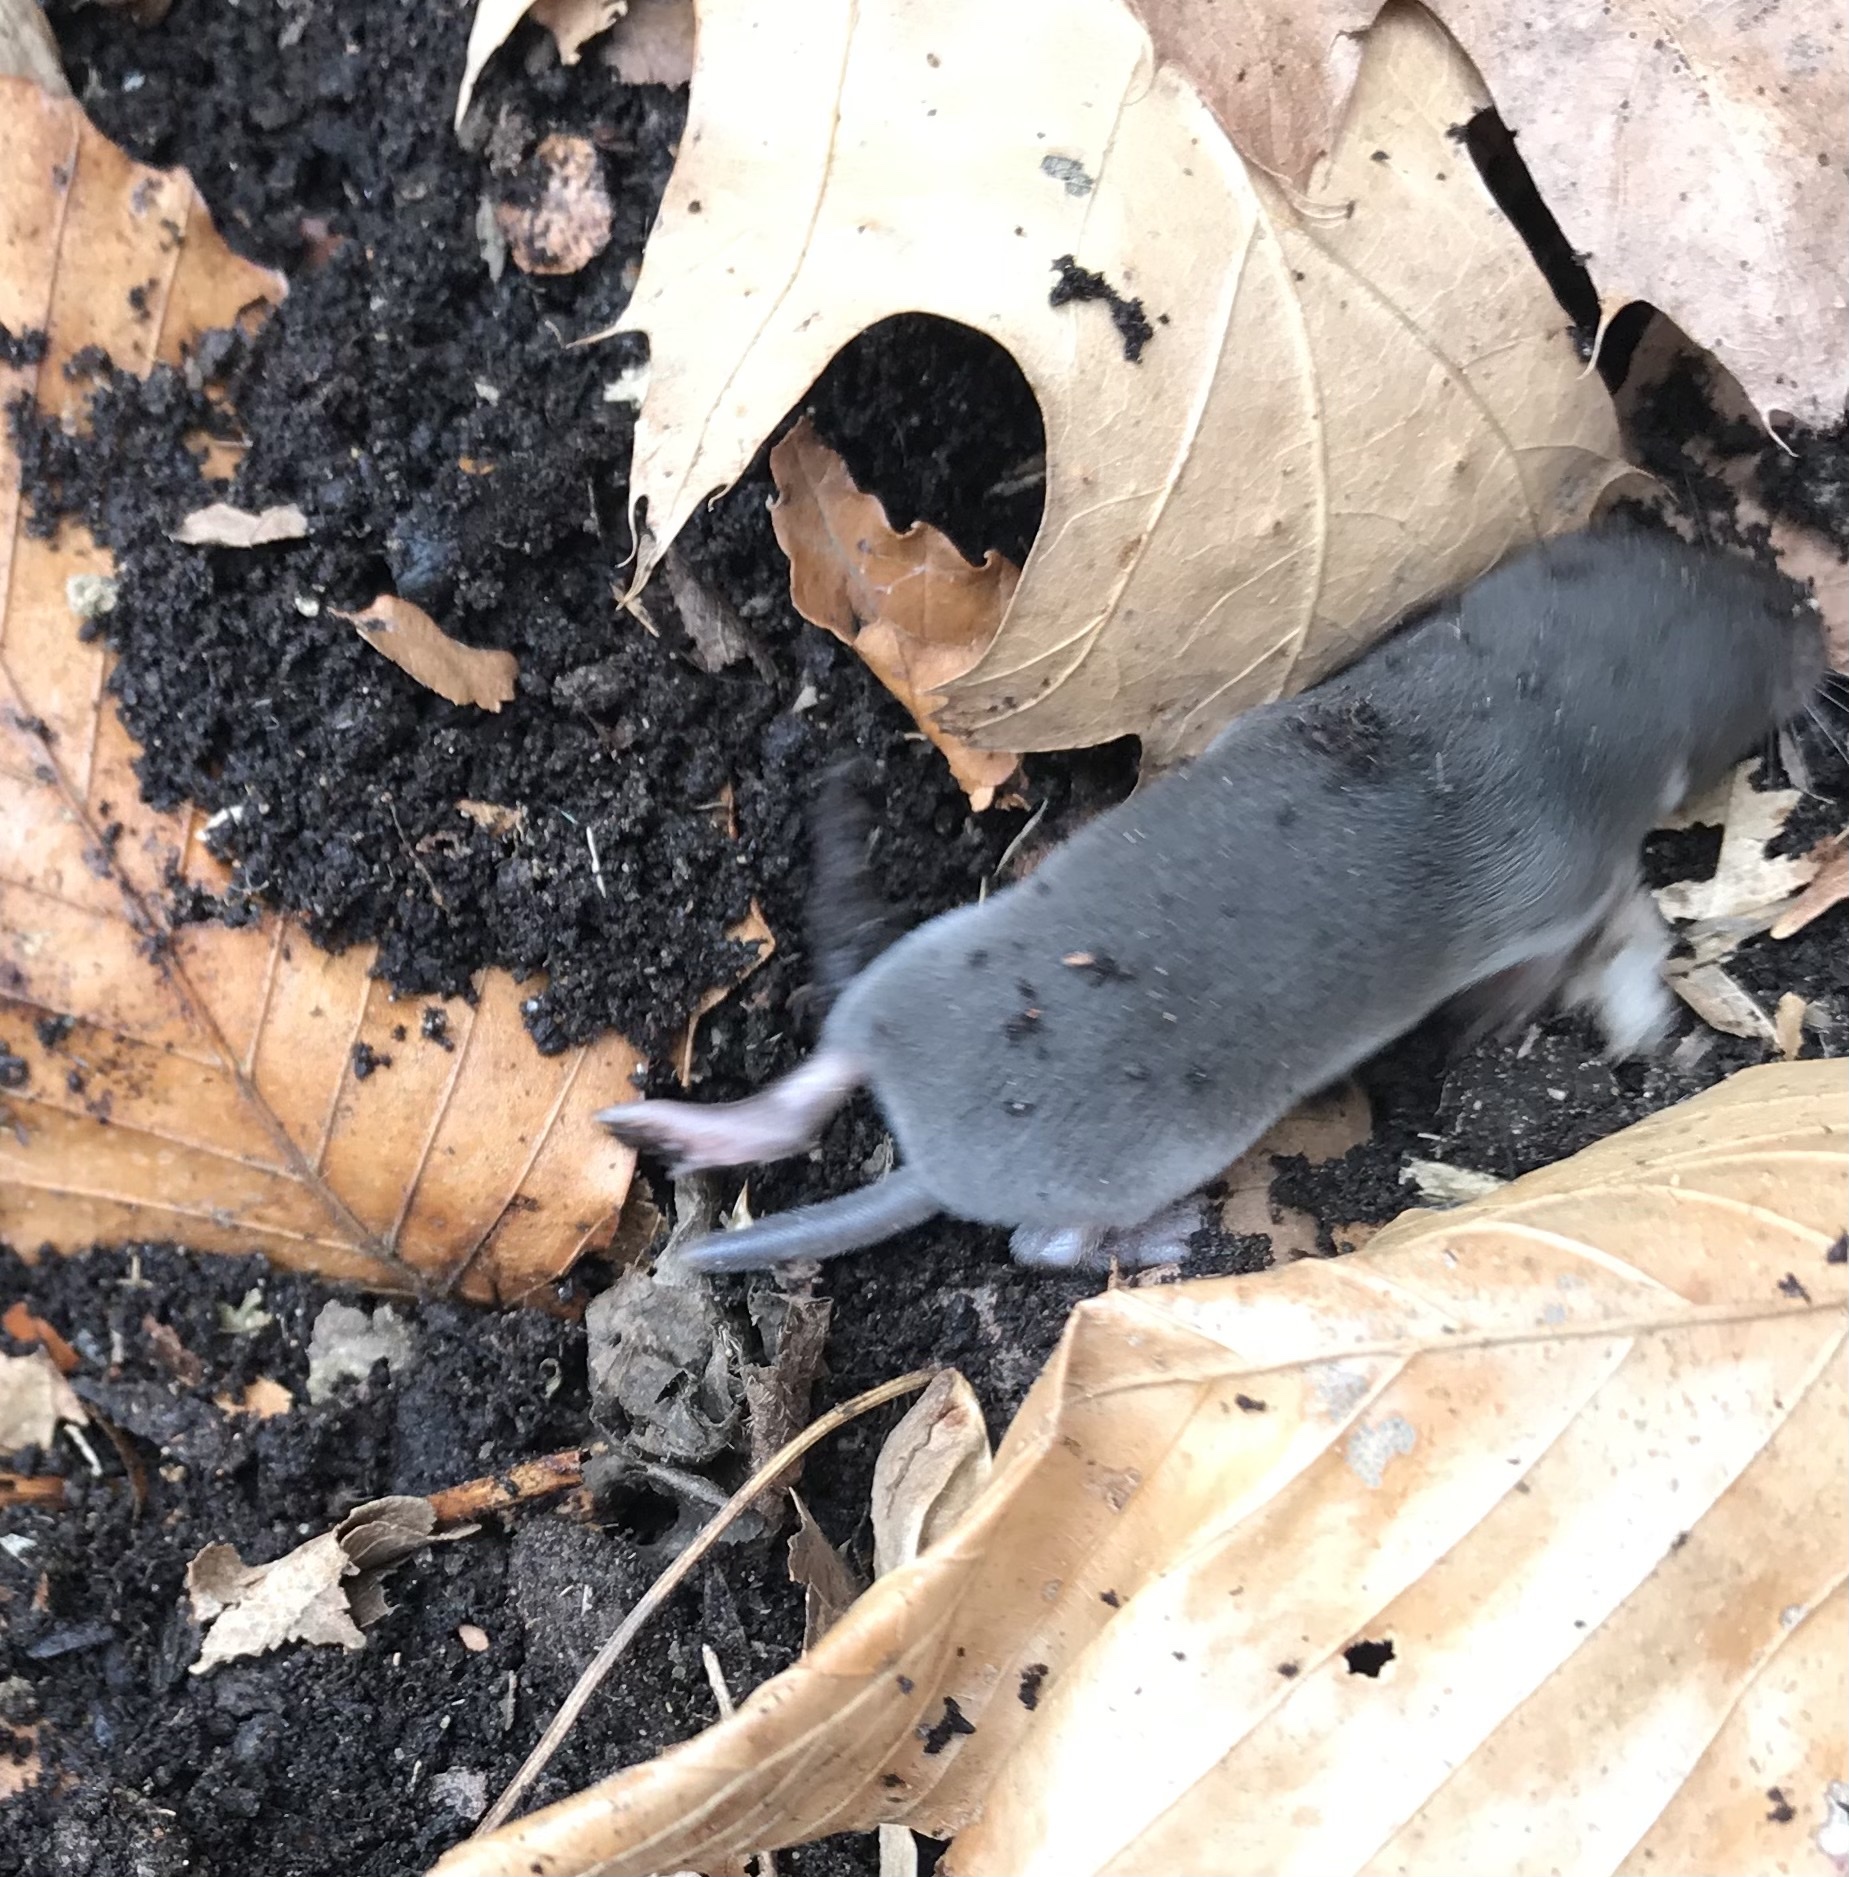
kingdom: Animalia
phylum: Chordata
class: Mammalia
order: Soricomorpha
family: Soricidae
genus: Blarina
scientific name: Blarina brevicauda
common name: Northern short-tailed shrew
